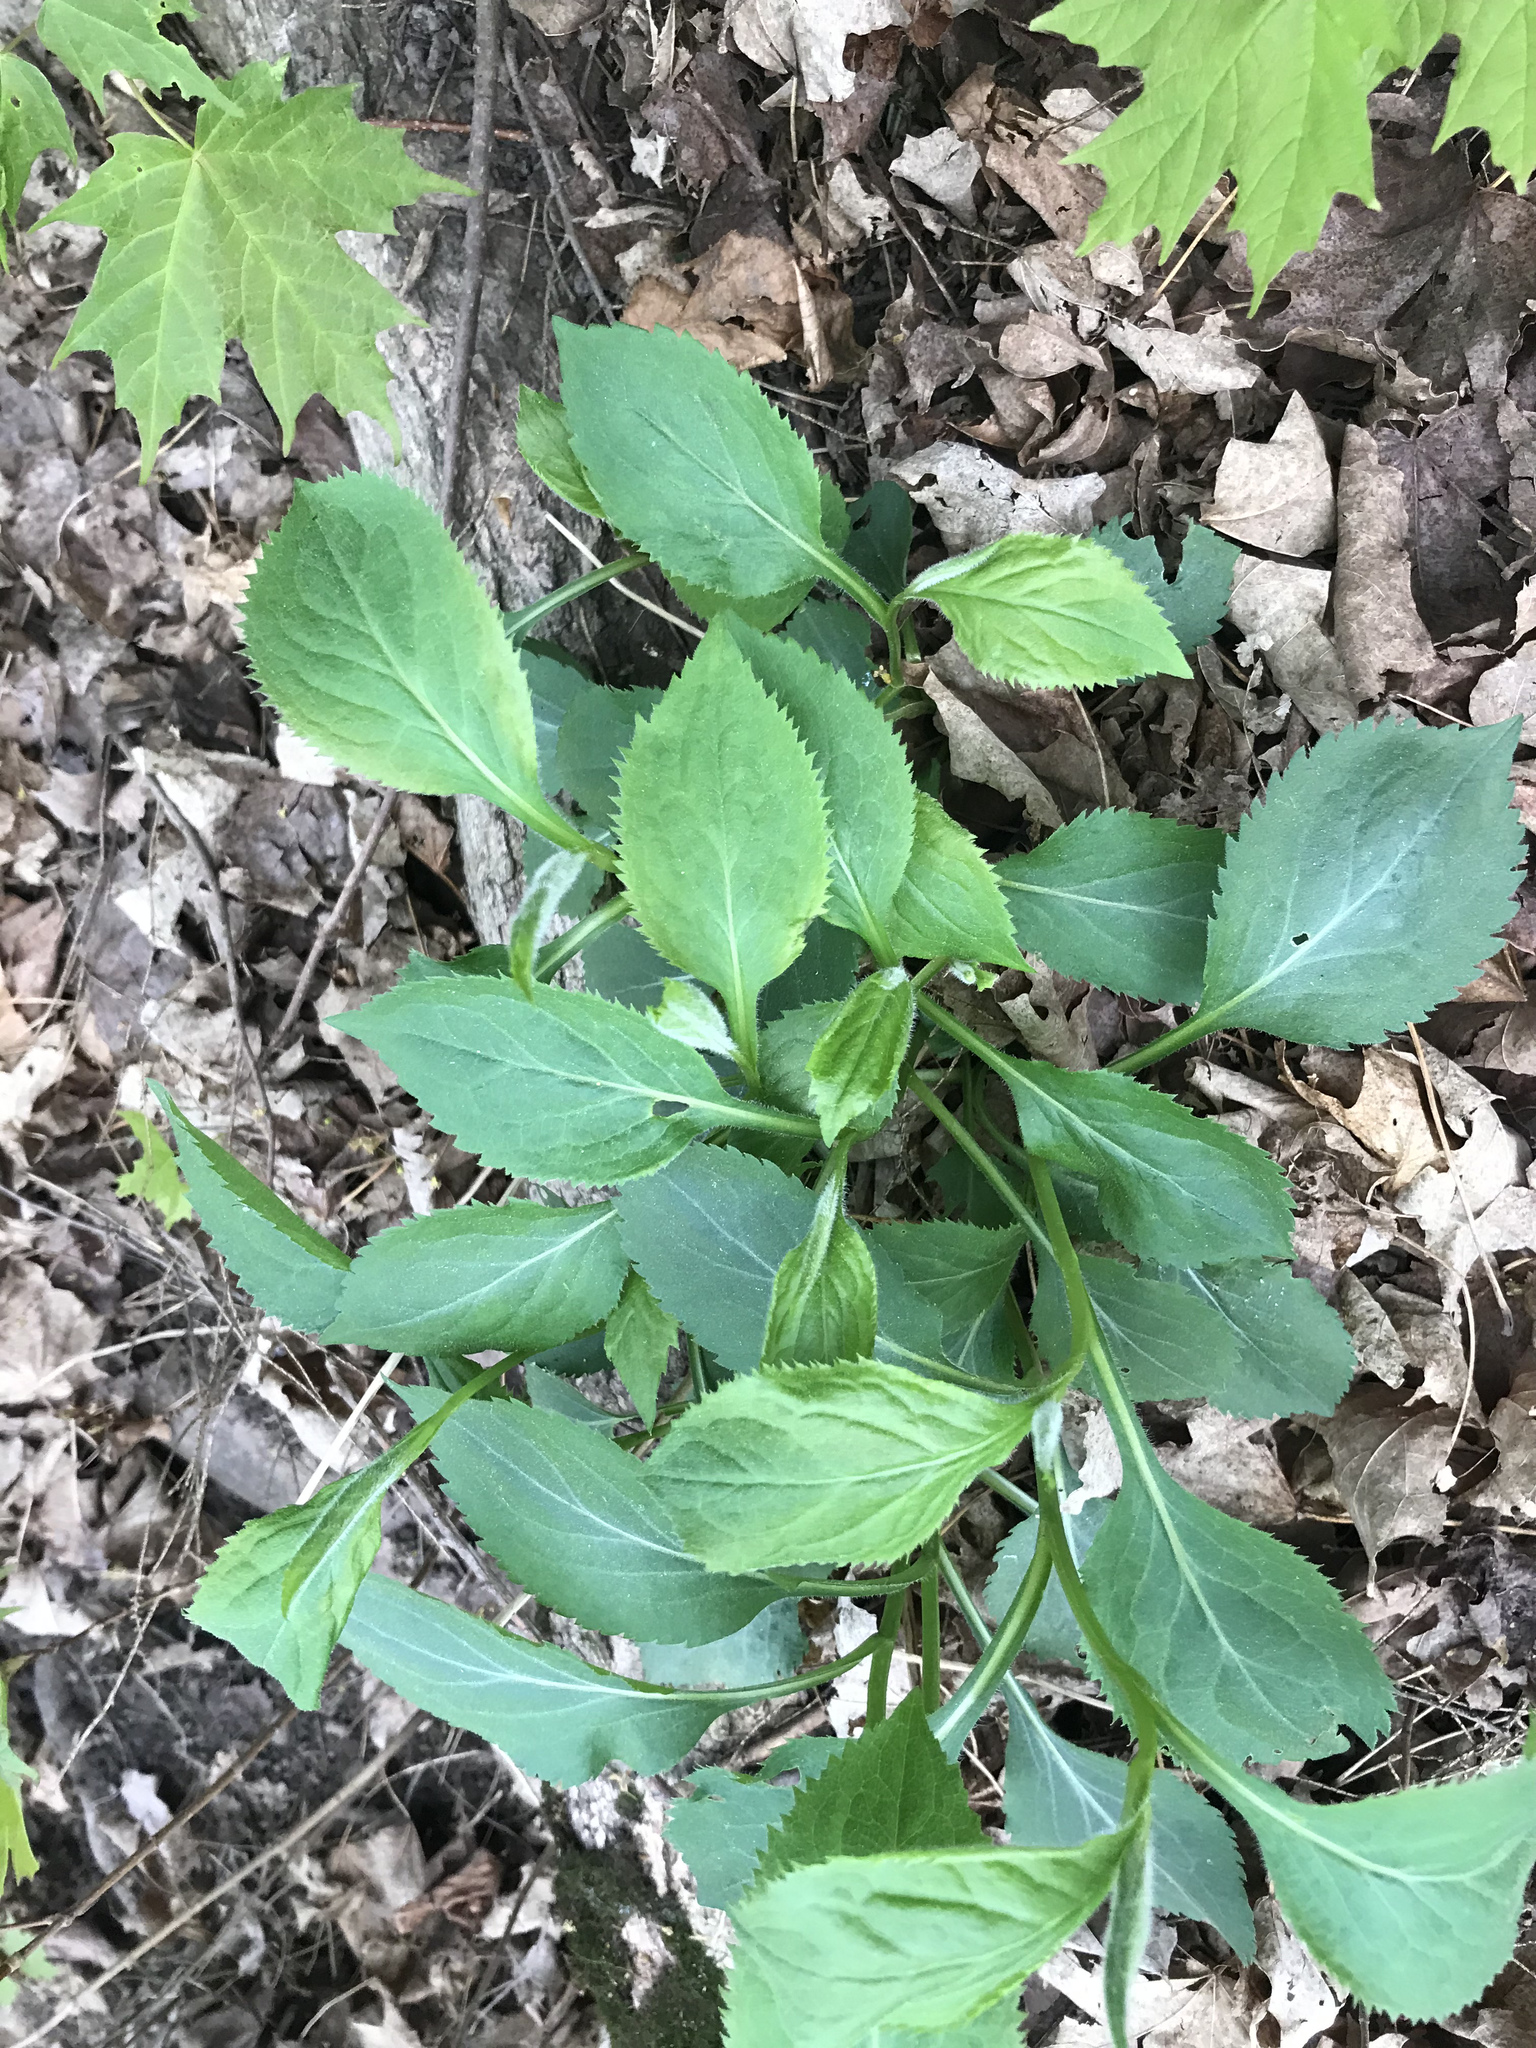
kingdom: Plantae
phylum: Tracheophyta
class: Magnoliopsida
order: Asterales
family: Asteraceae
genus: Solidago
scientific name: Solidago flexicaulis
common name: Zig-zag goldenrod
